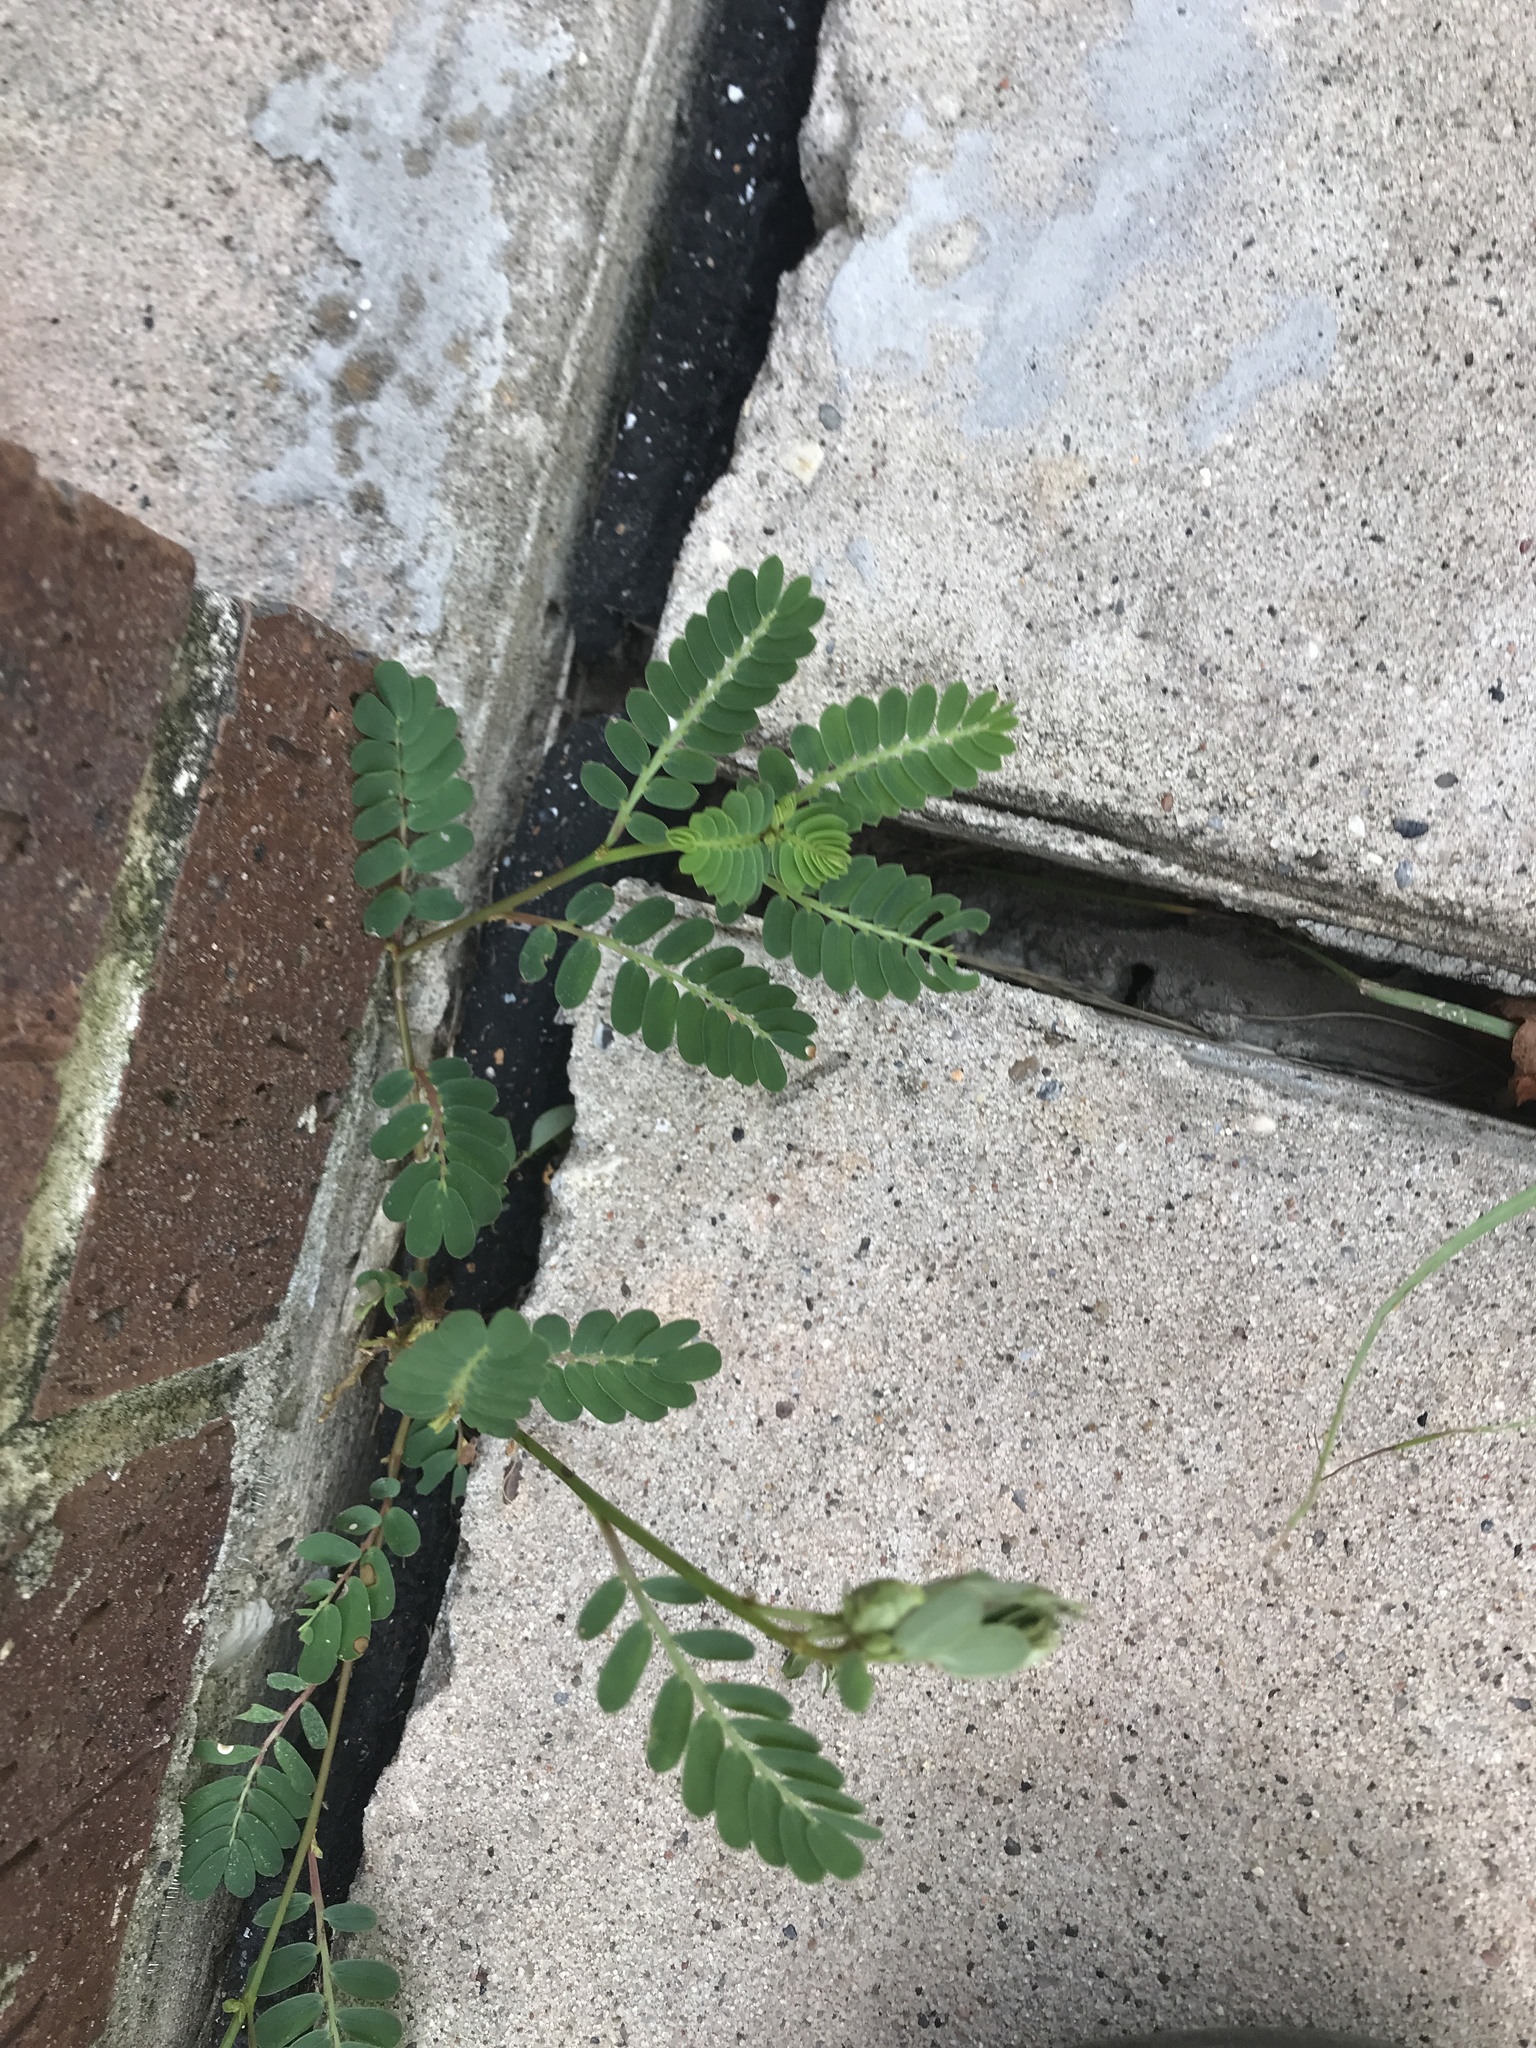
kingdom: Plantae
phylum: Tracheophyta
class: Magnoliopsida
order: Malpighiales
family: Phyllanthaceae
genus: Phyllanthus
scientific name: Phyllanthus urinaria
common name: Chamber bitter
